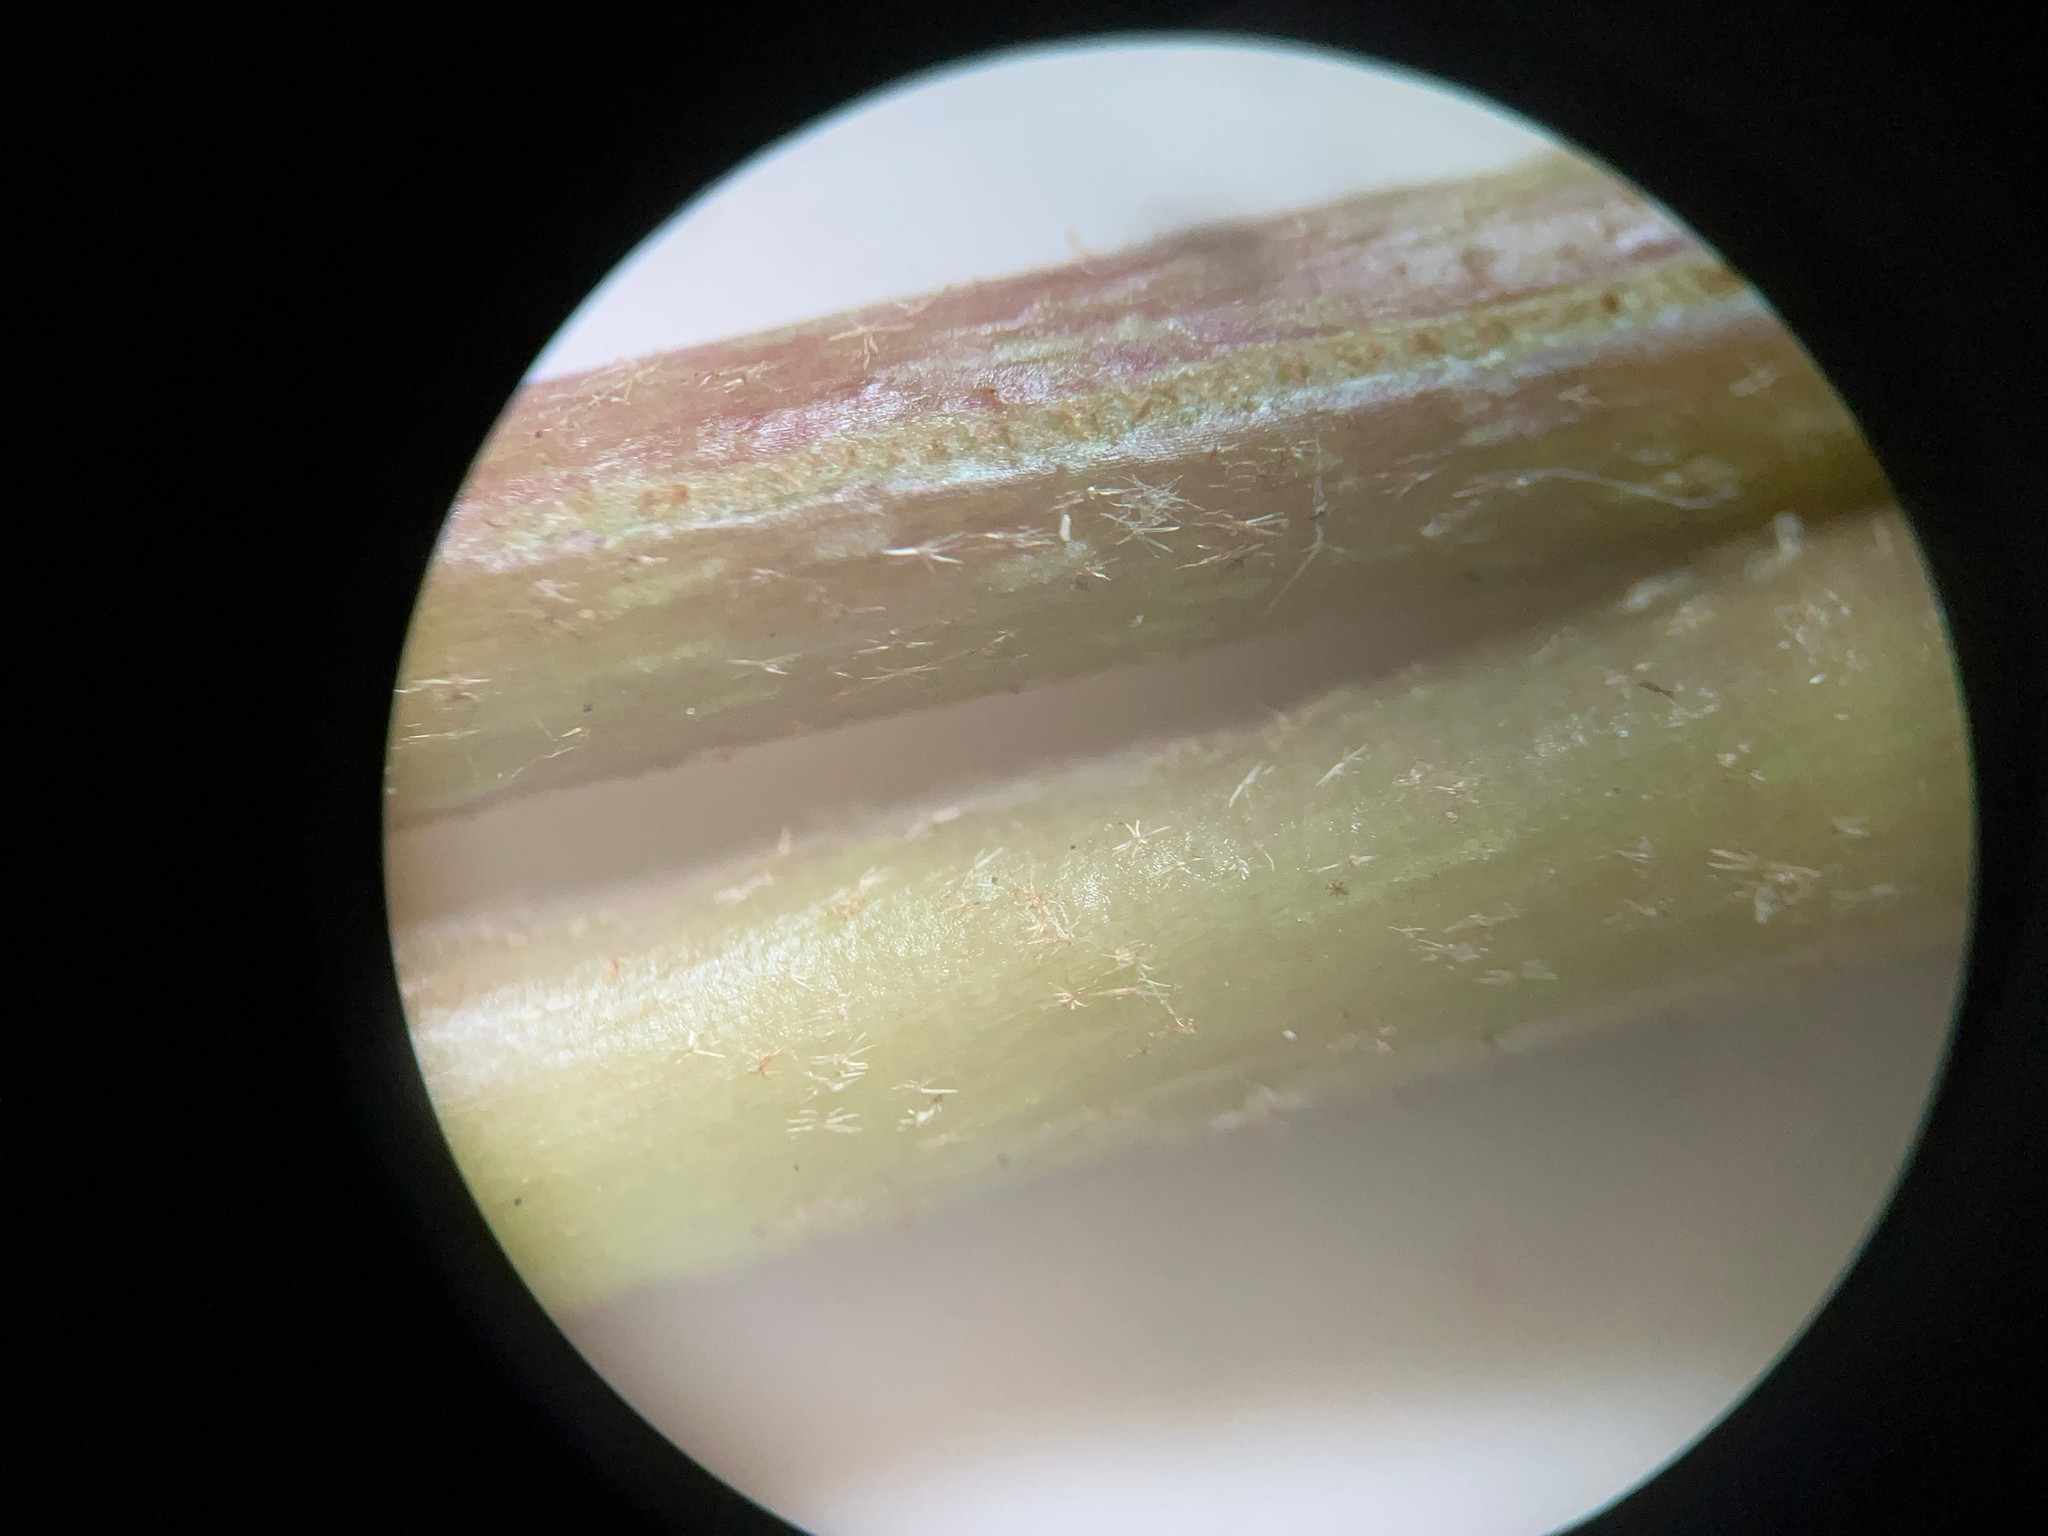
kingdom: Plantae
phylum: Tracheophyta
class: Magnoliopsida
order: Apiales
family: Araliaceae
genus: Hedera
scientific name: Hedera helix
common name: Ivy
